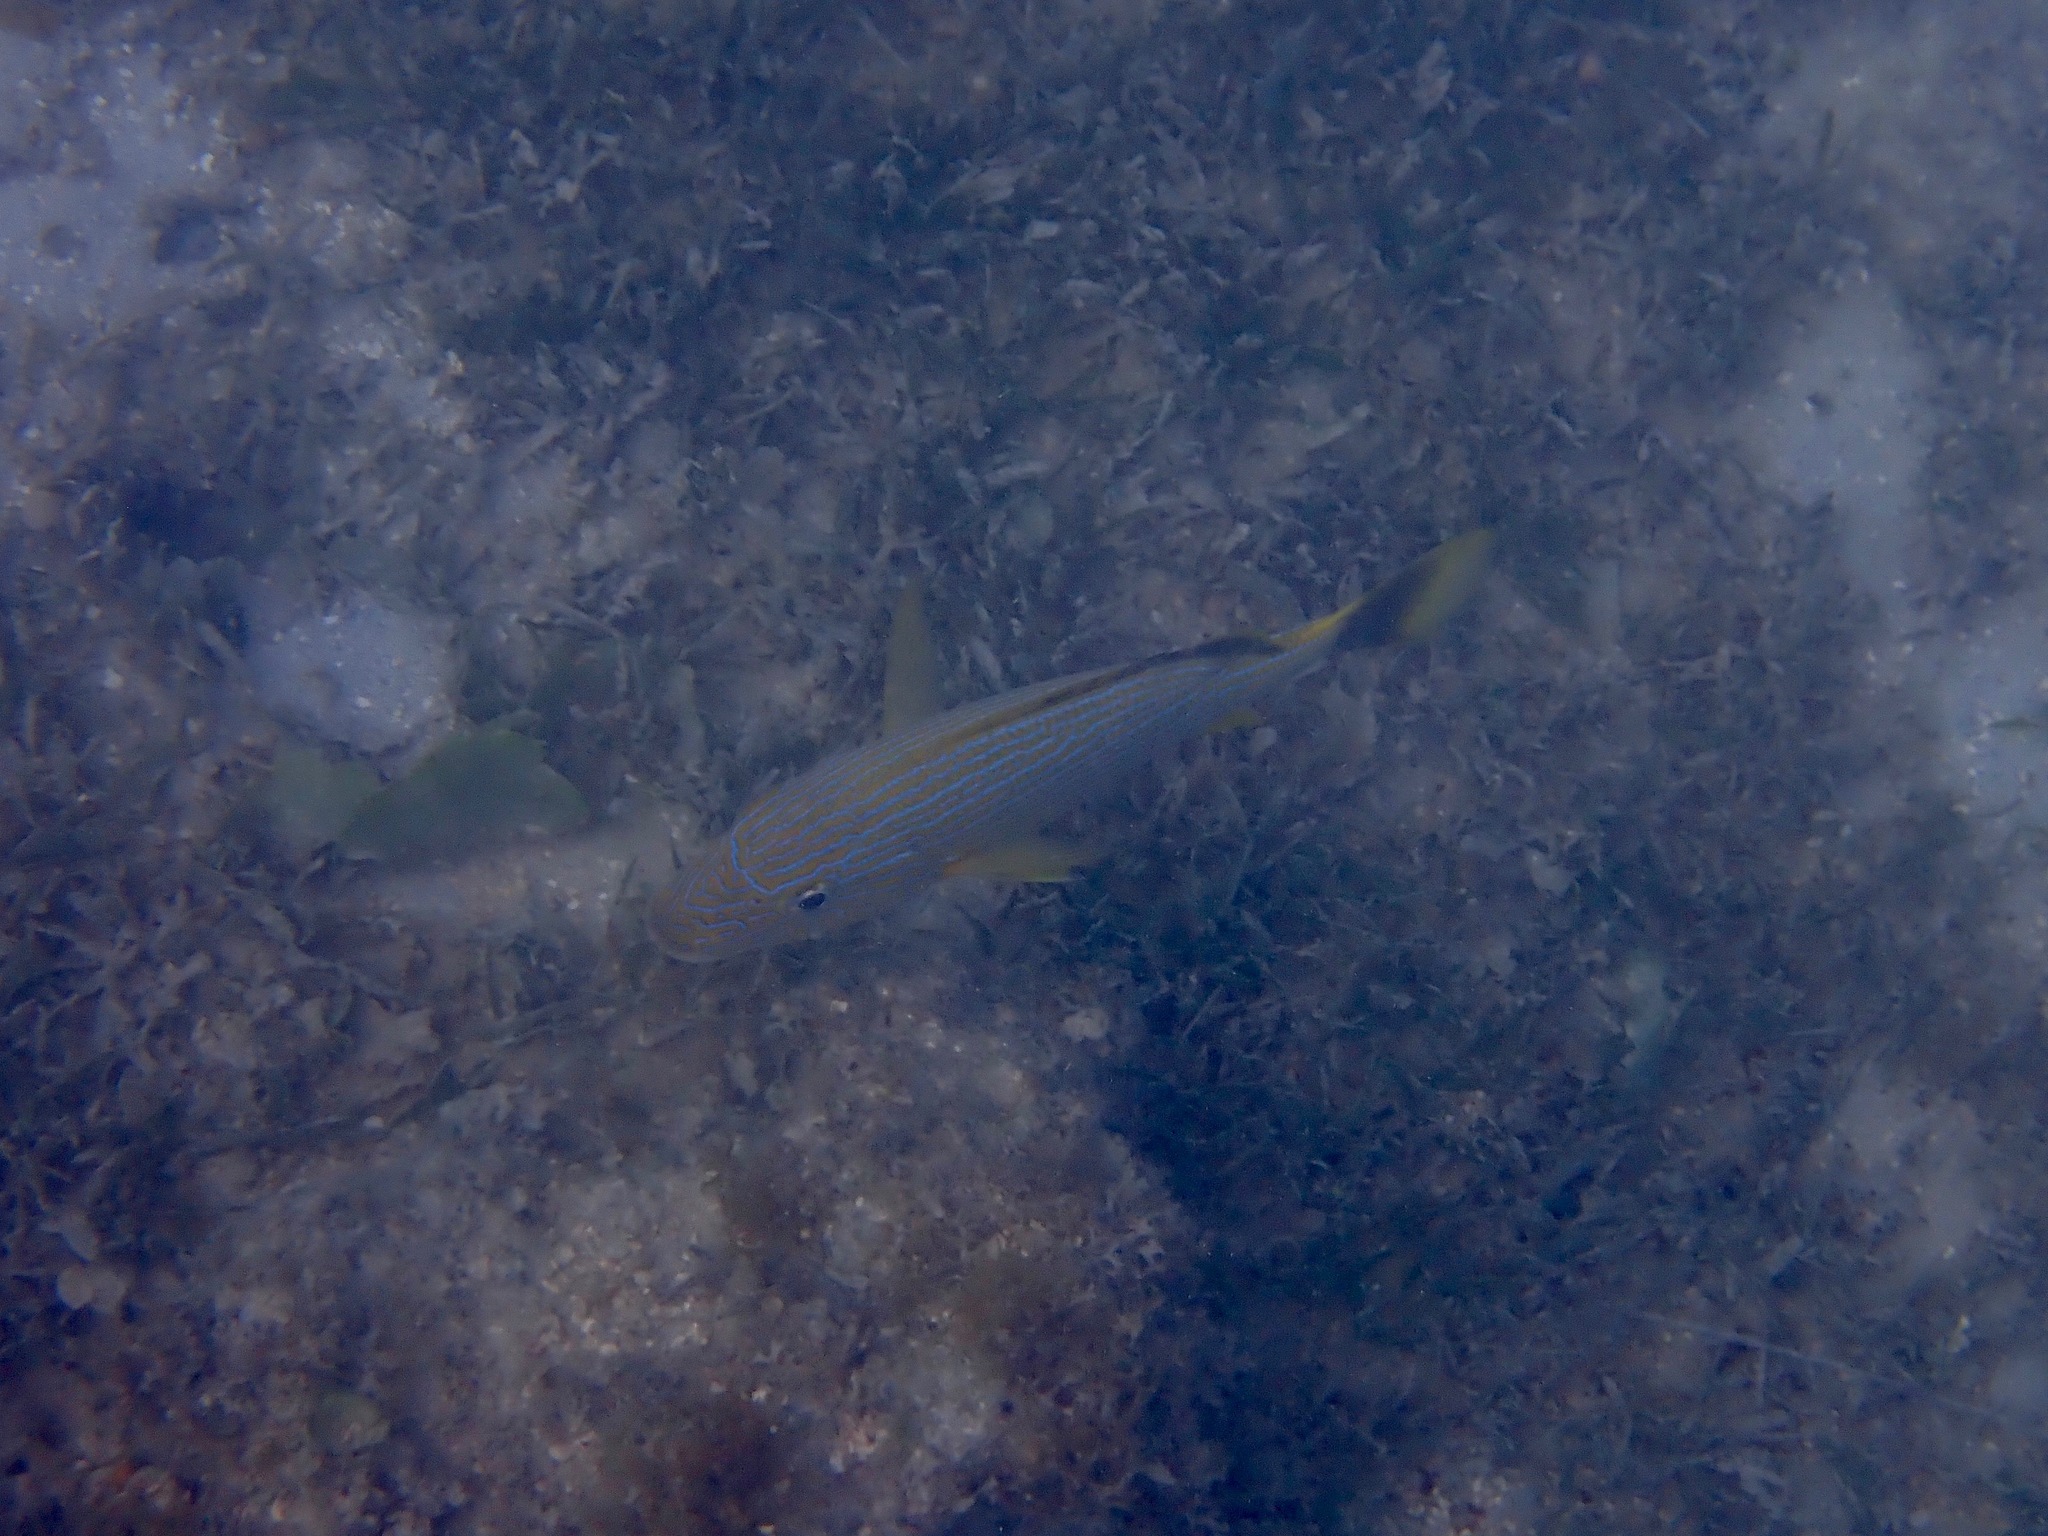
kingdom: Animalia
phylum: Chordata
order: Perciformes
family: Haemulidae
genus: Haemulon
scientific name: Haemulon sciurus
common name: Bluestriped grunt
